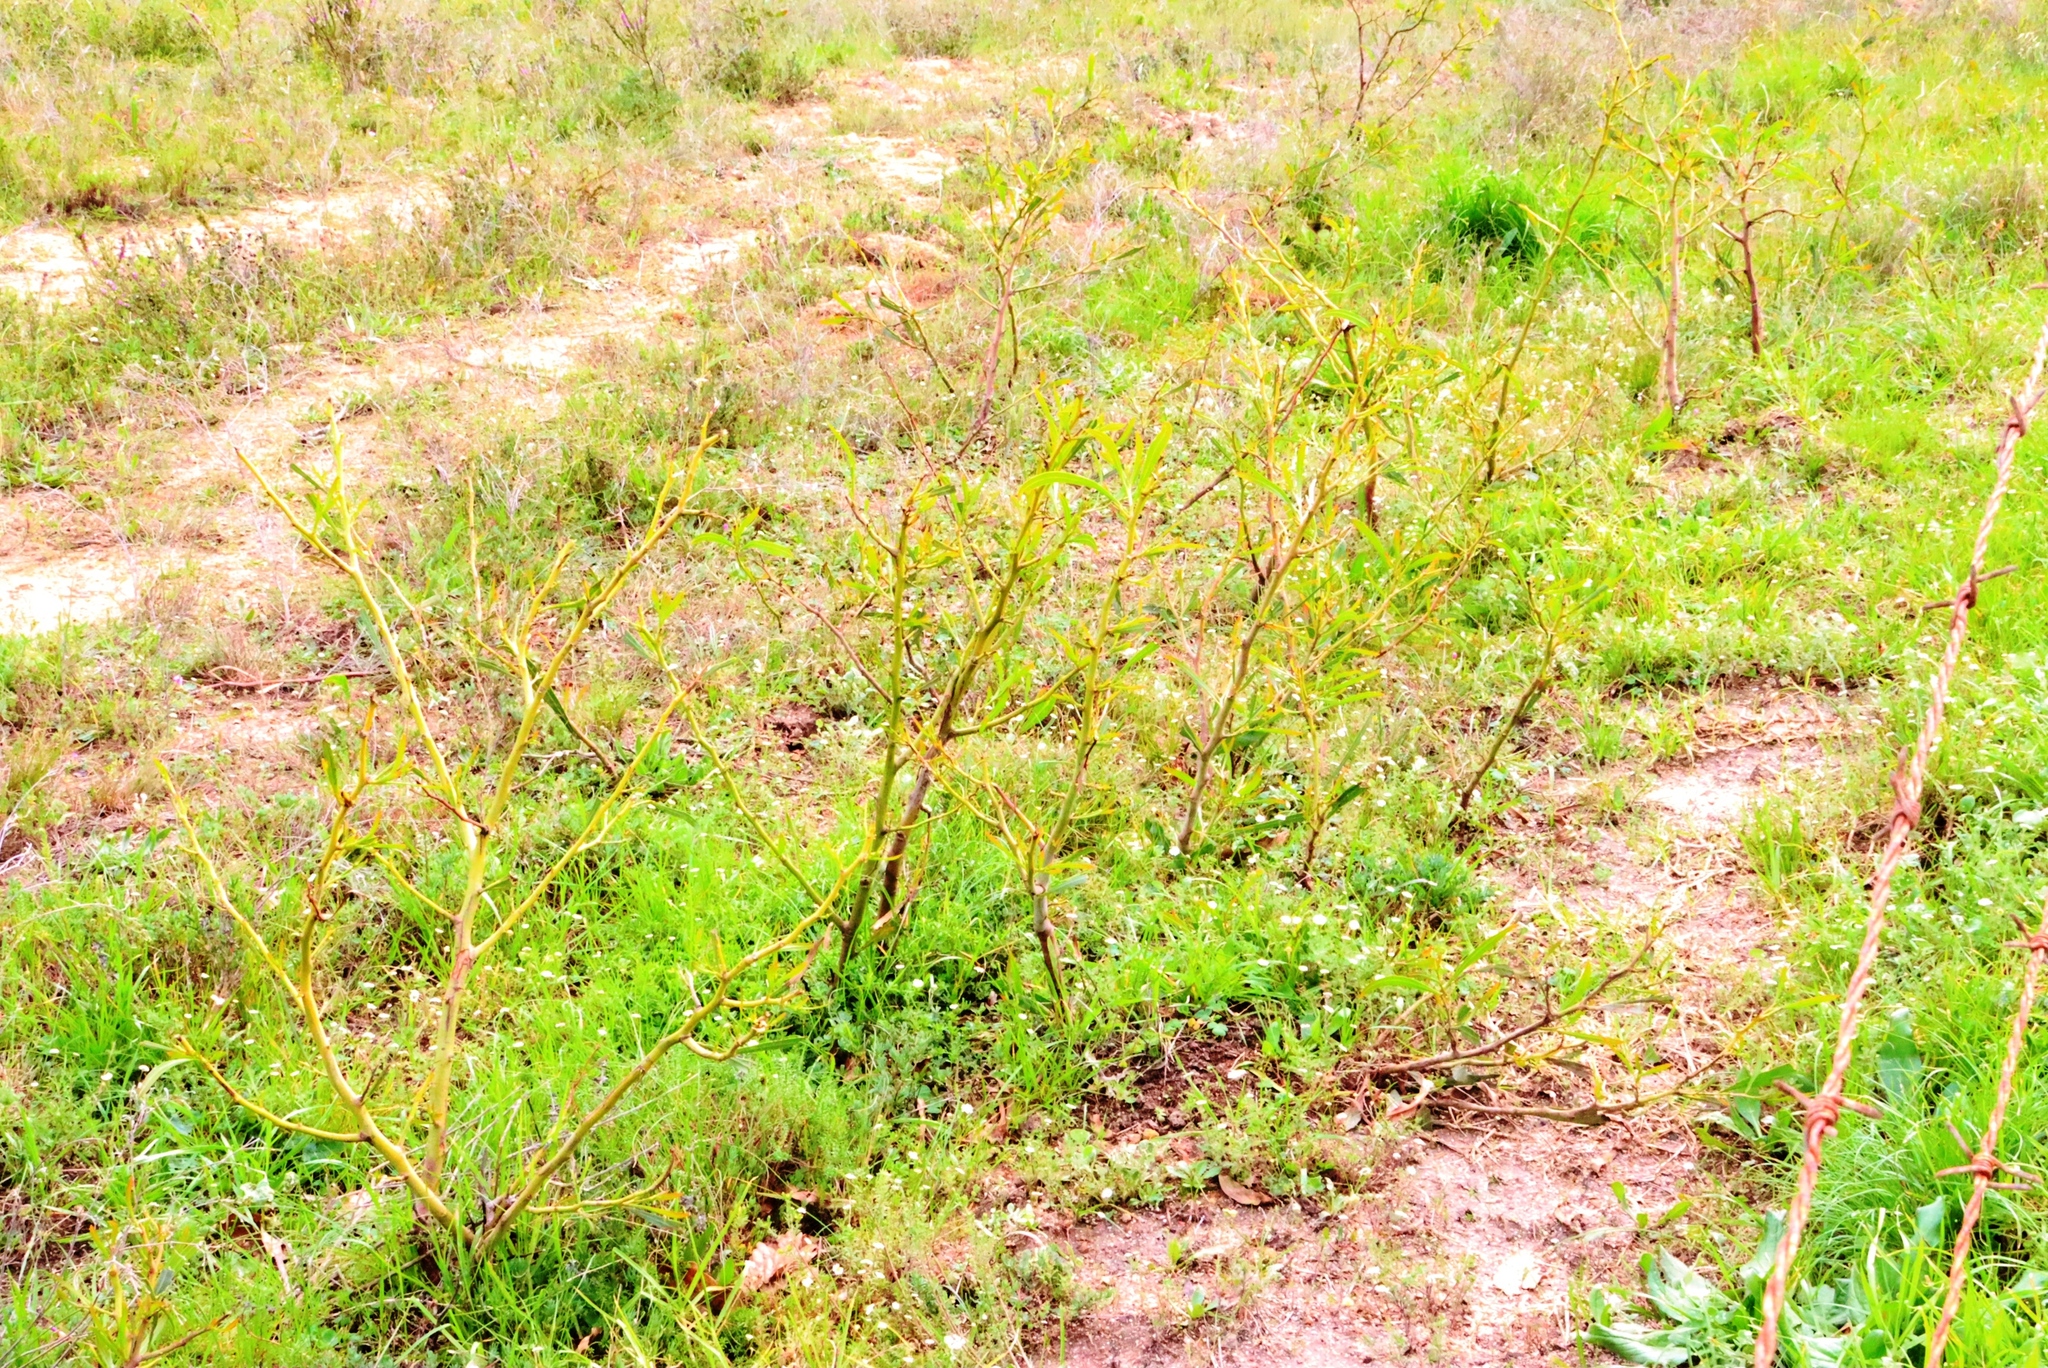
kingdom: Plantae
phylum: Tracheophyta
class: Magnoliopsida
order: Fabales
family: Fabaceae
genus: Acacia
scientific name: Acacia saligna
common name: Orange wattle
